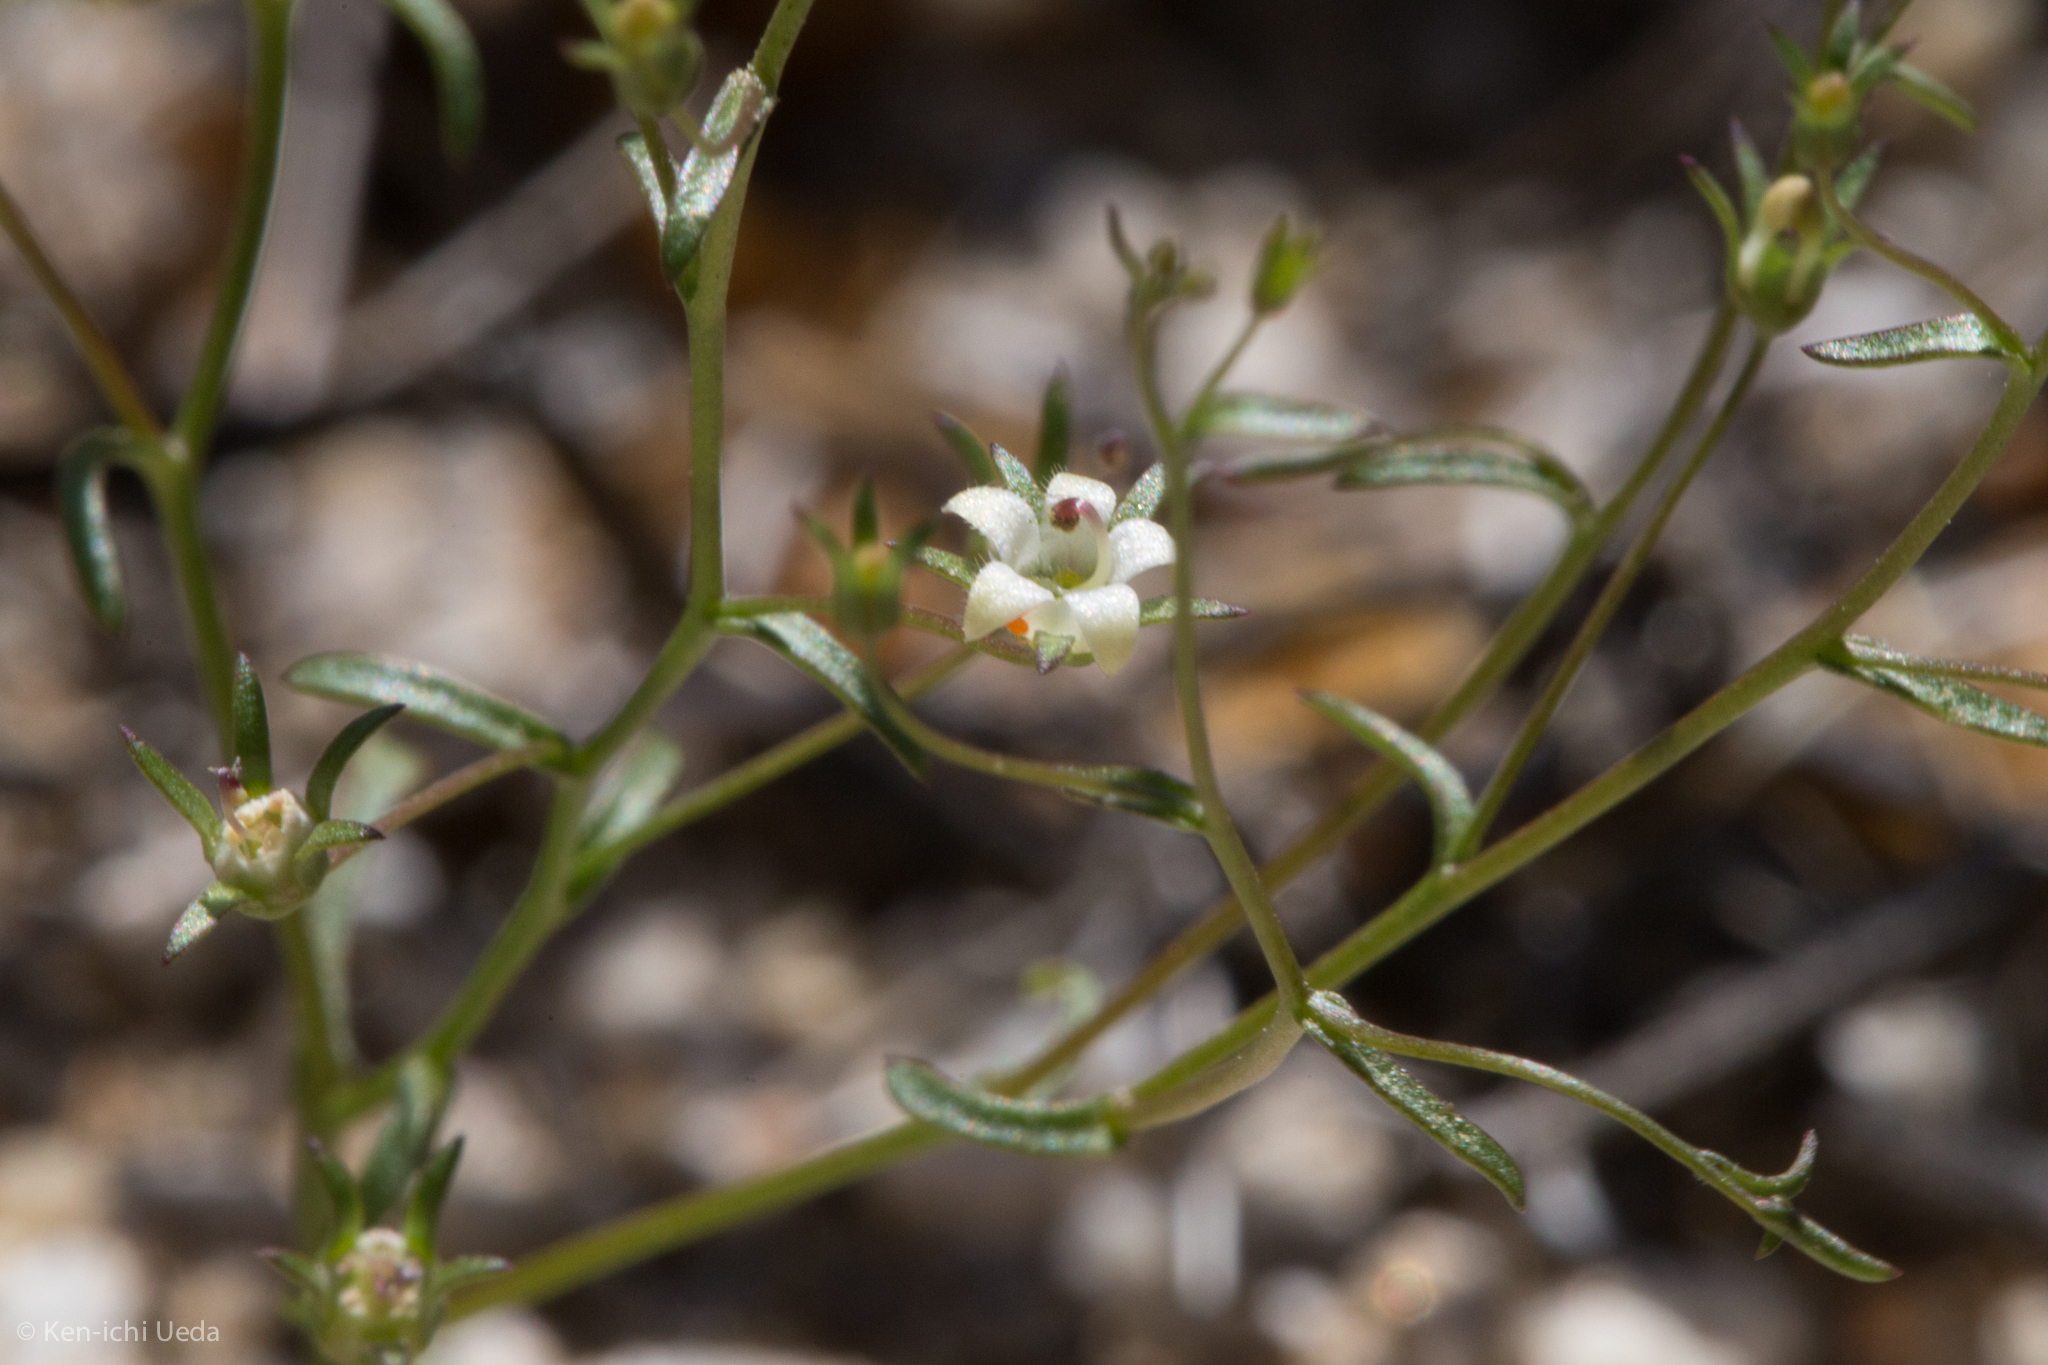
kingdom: Plantae
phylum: Tracheophyta
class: Magnoliopsida
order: Asterales
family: Campanulaceae
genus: Nemacladus
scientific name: Nemacladus glanduliferus
